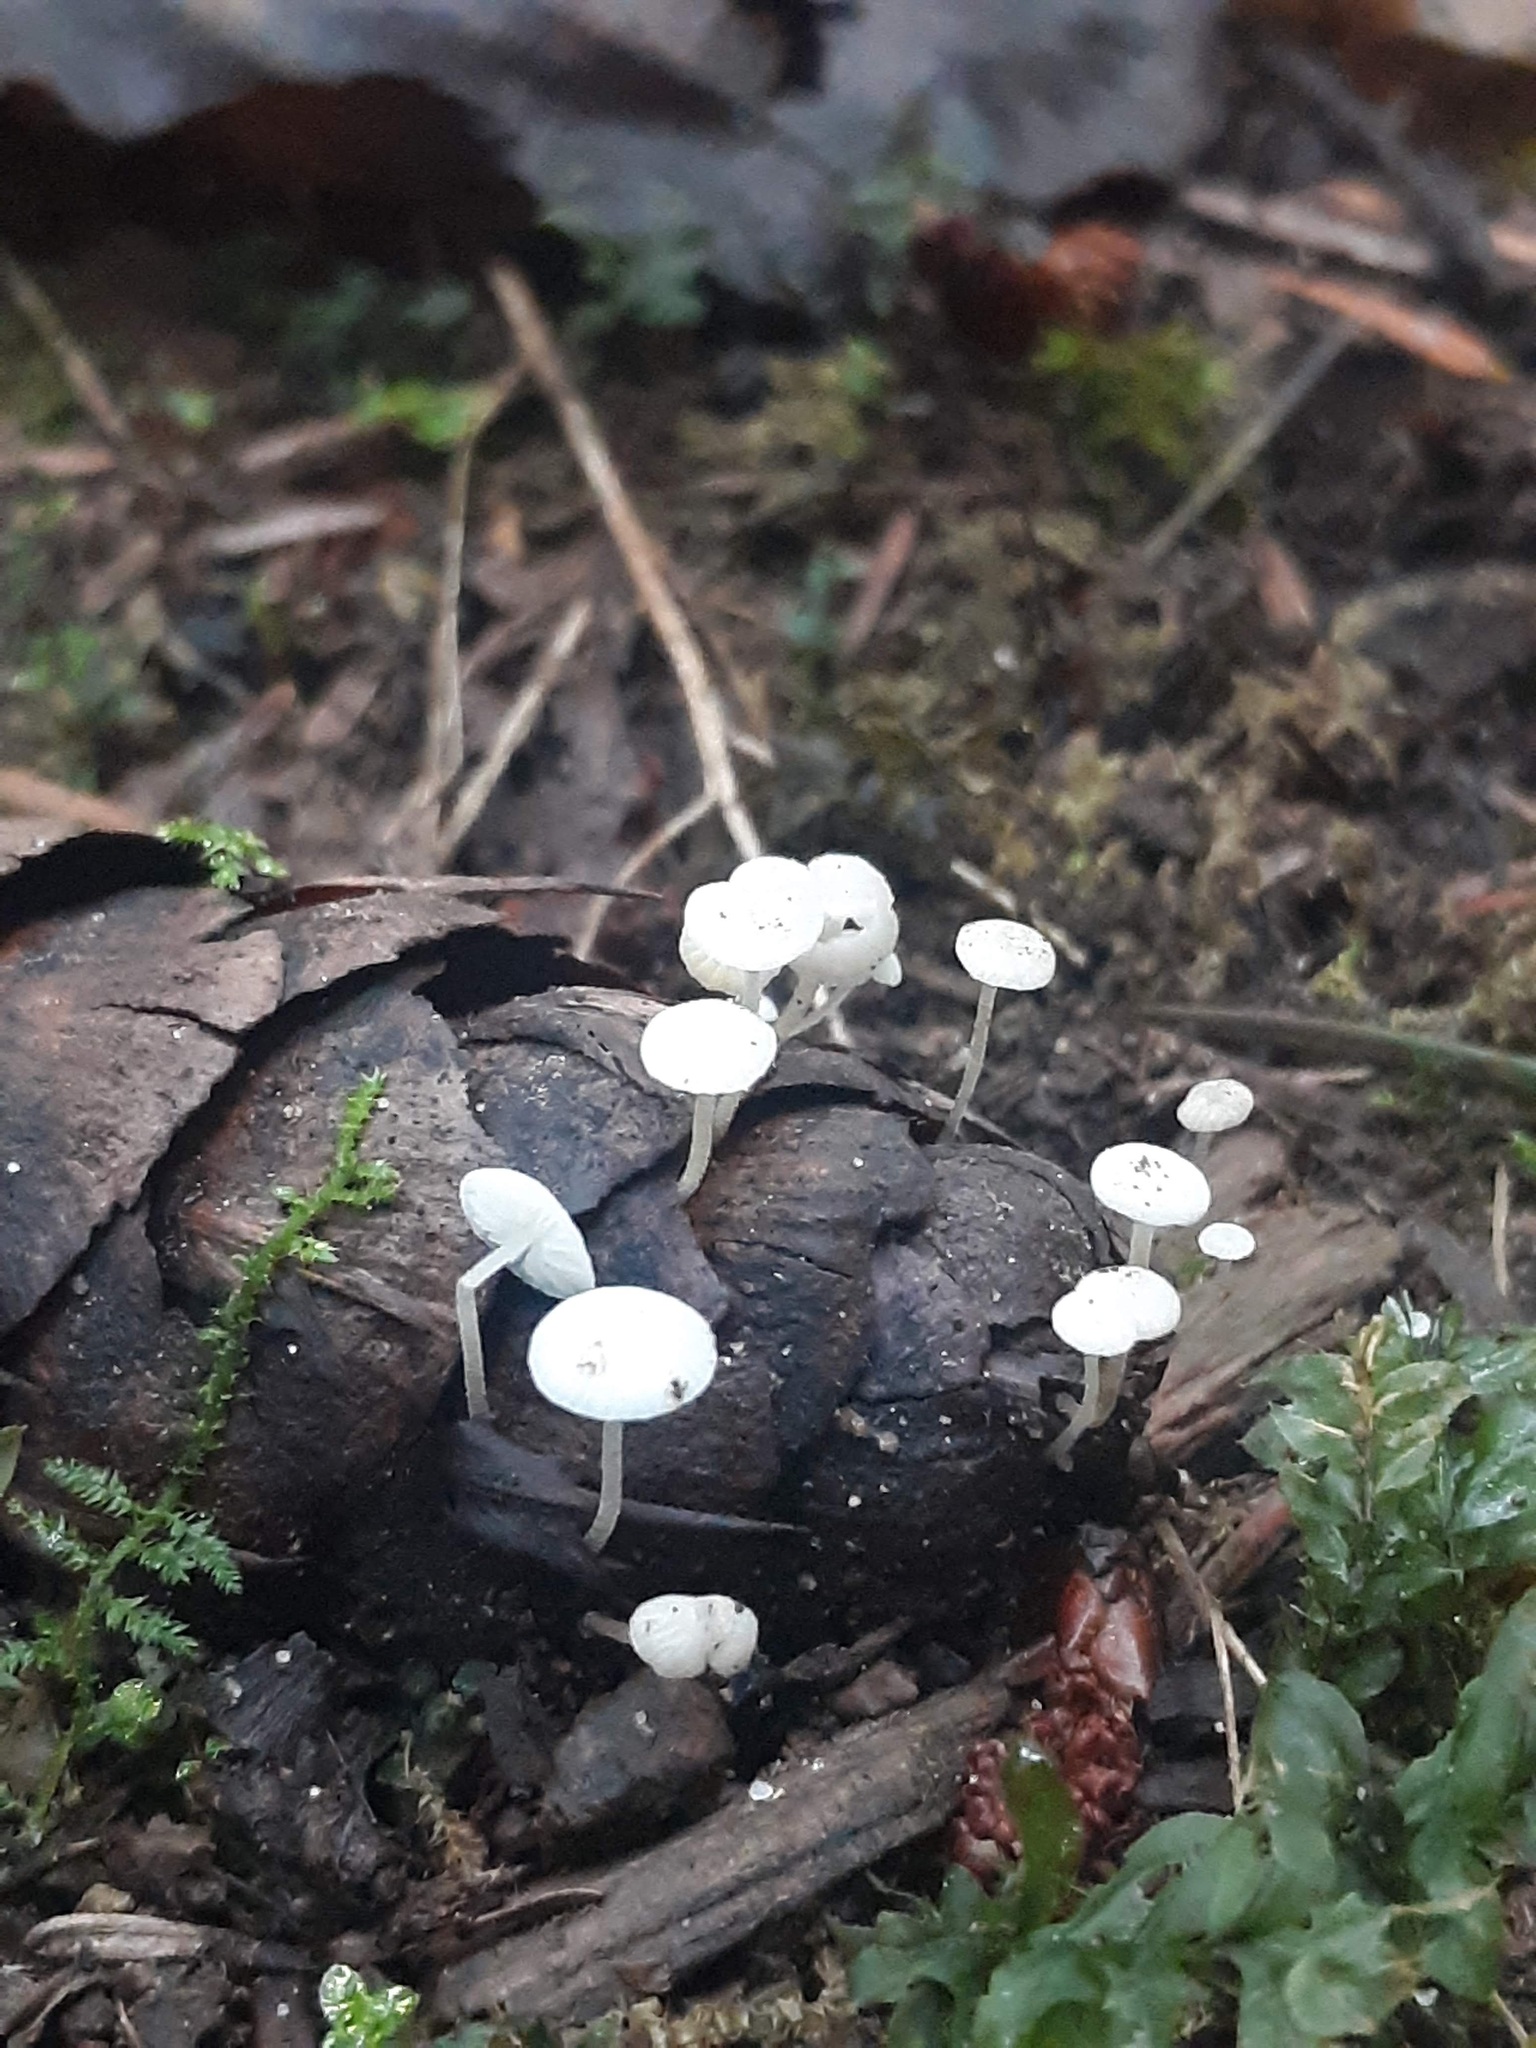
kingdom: Fungi
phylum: Basidiomycota
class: Agaricomycetes
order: Agaricales
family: Physalacriaceae
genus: Strobilurus
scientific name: Strobilurus trullisatus
